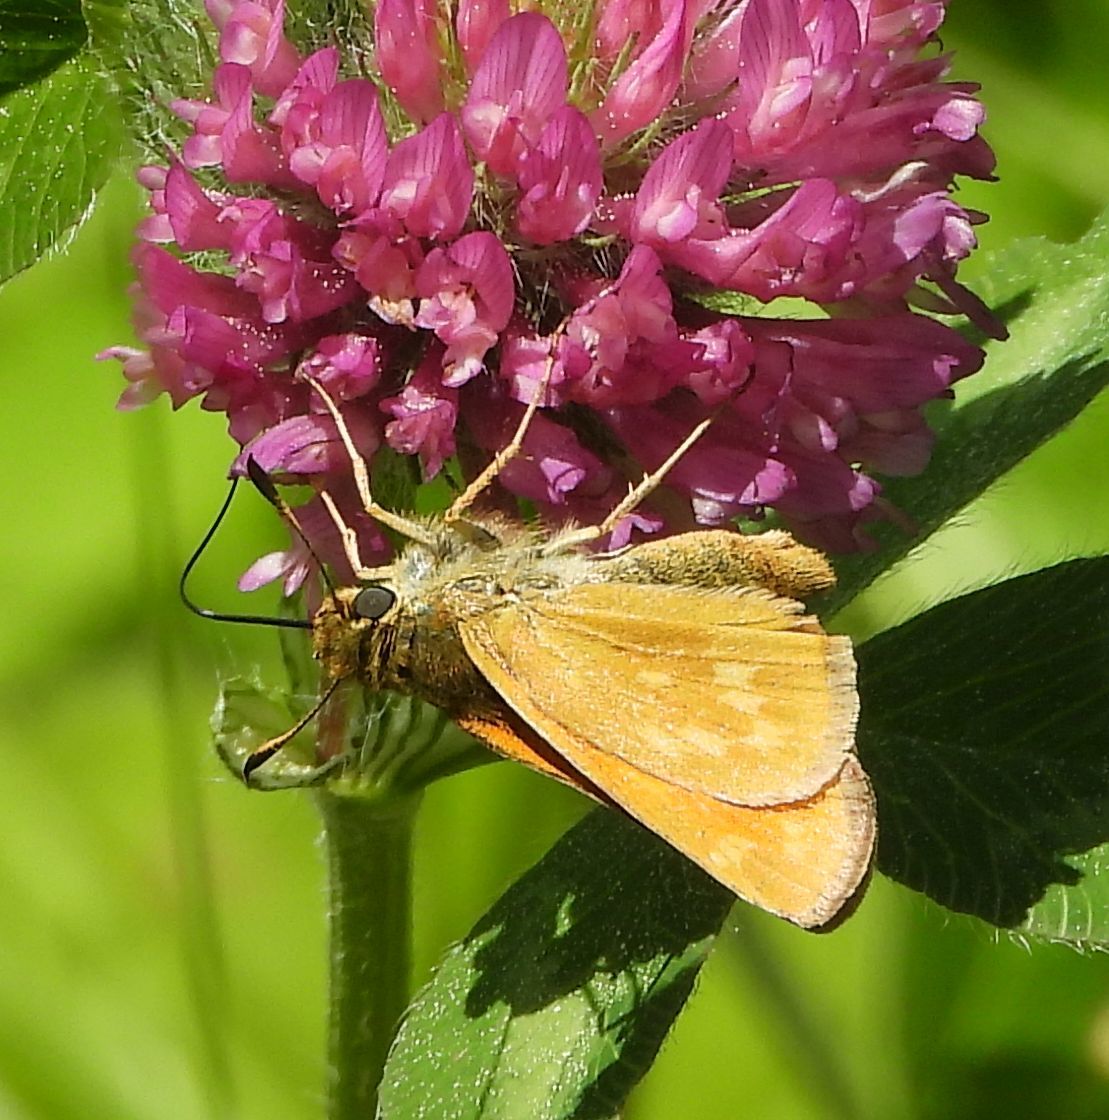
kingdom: Animalia
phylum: Arthropoda
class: Insecta
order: Lepidoptera
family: Hesperiidae
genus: Hesperia
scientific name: Hesperia sassacus
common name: Indian skipper
